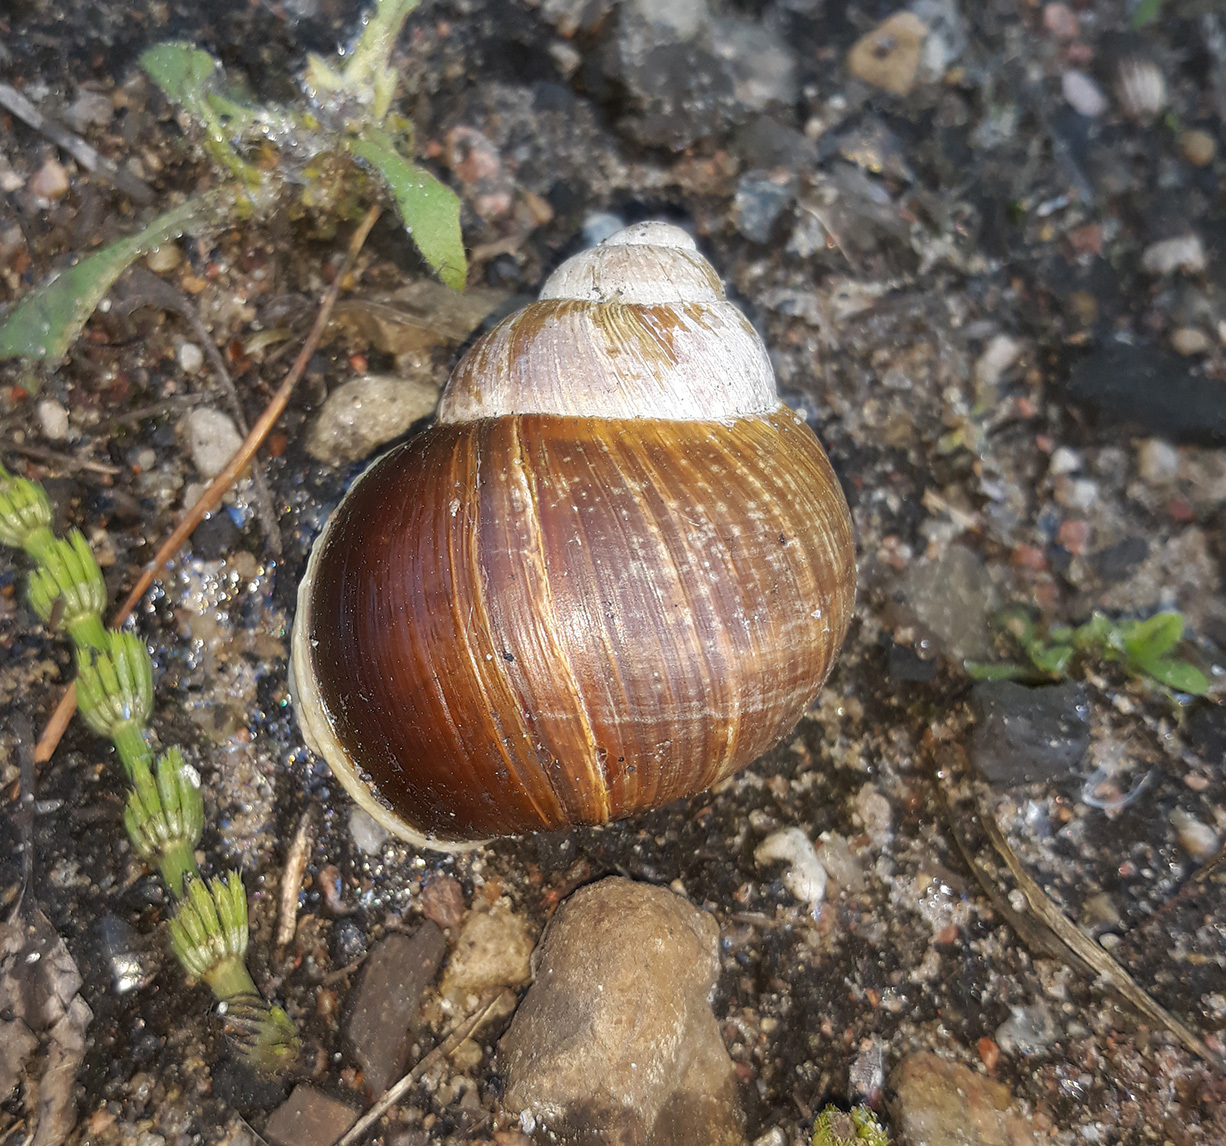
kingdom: Animalia
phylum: Mollusca
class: Gastropoda
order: Stylommatophora
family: Helicidae
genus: Helix
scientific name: Helix pomatia
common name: Roman snail
